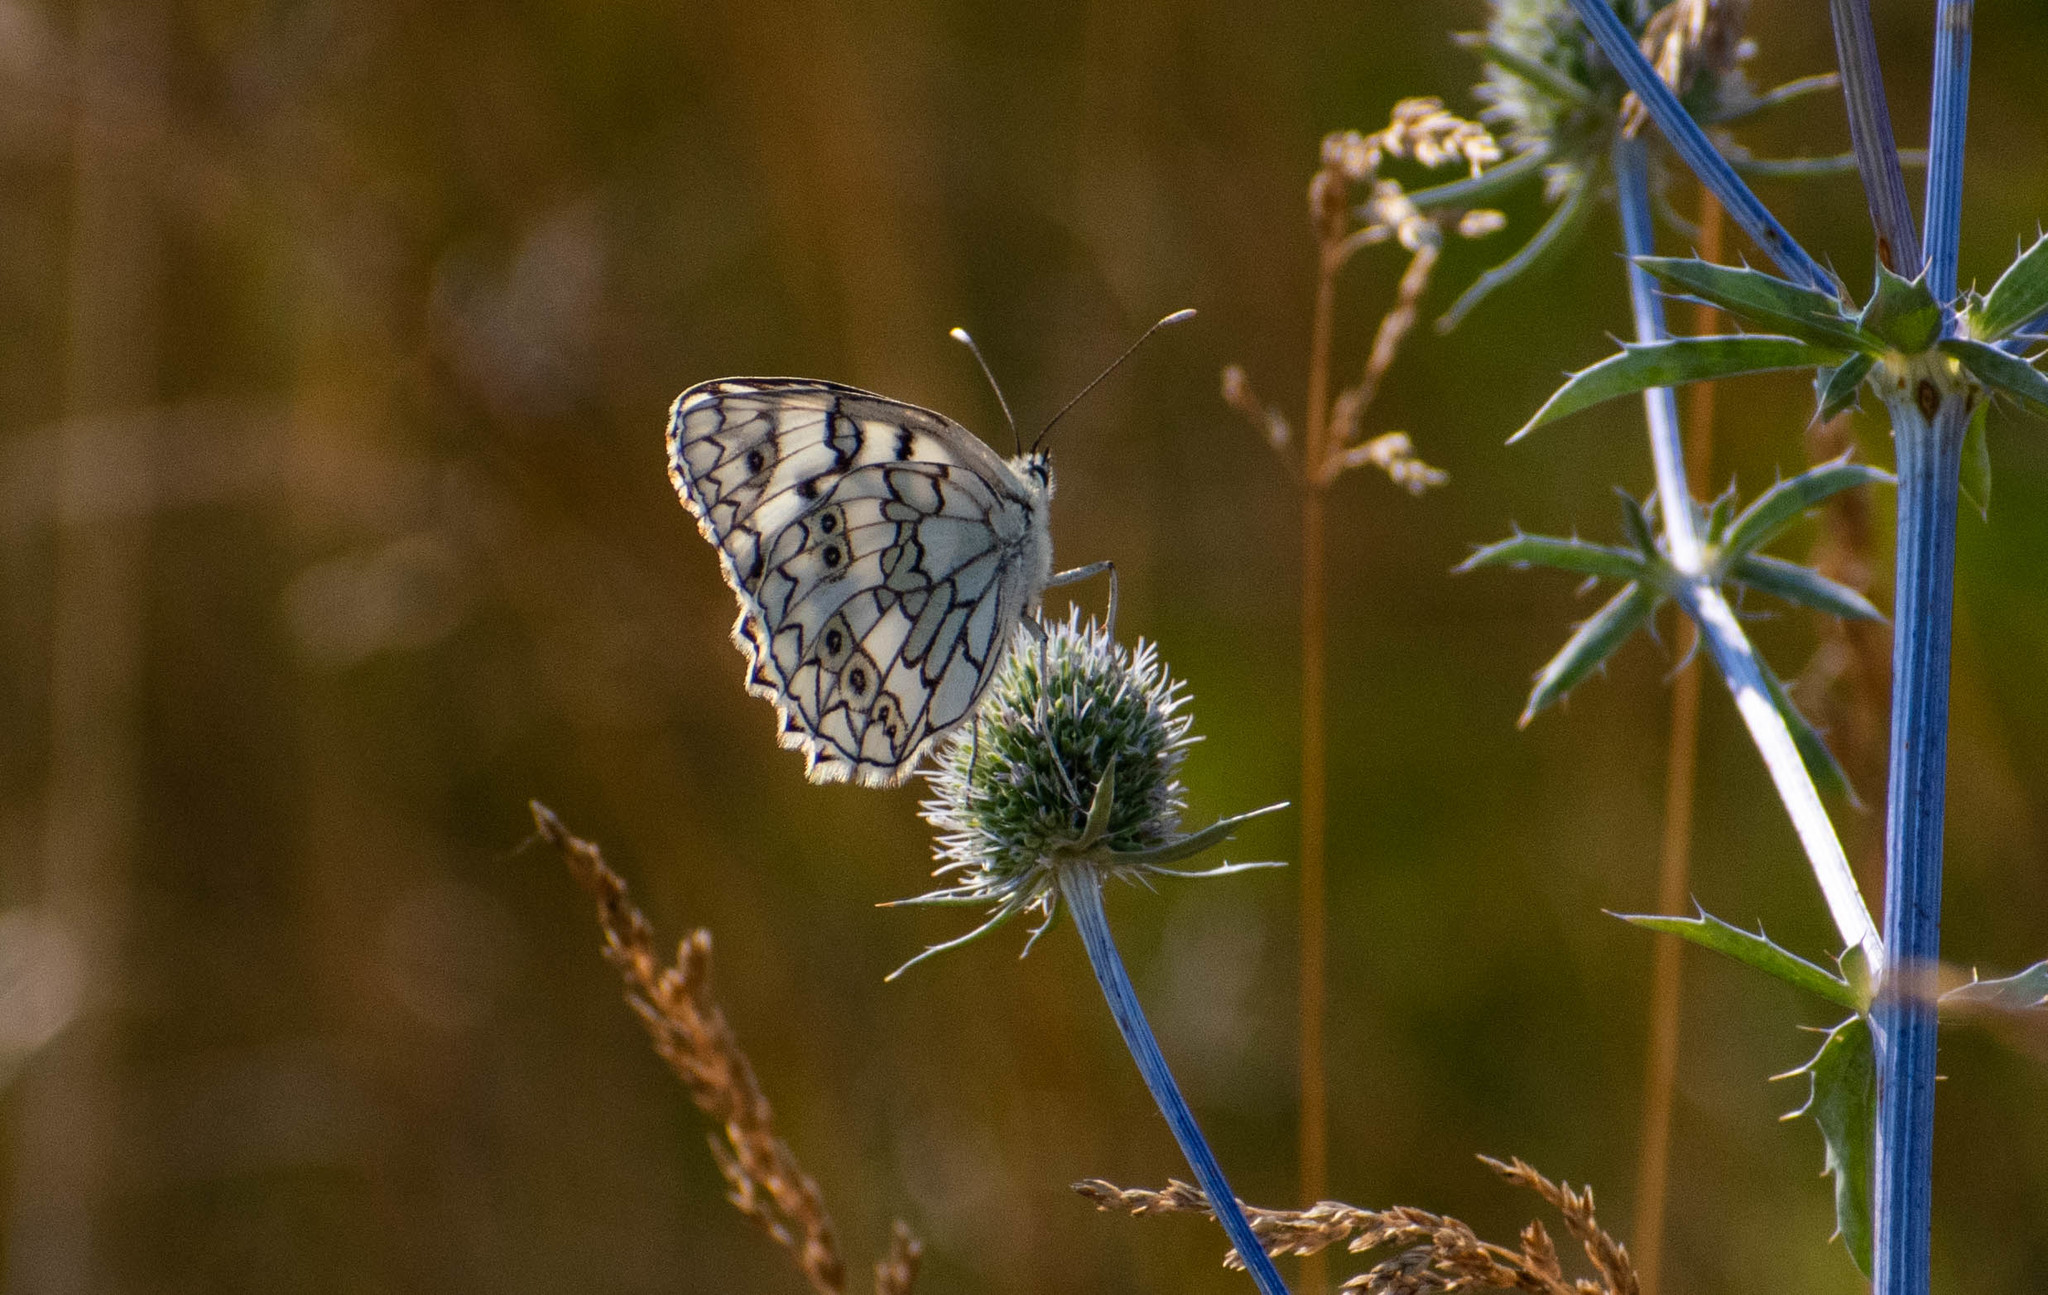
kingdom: Animalia
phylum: Arthropoda
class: Insecta
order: Lepidoptera
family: Nymphalidae
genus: Melanargia
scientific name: Melanargia japygia
